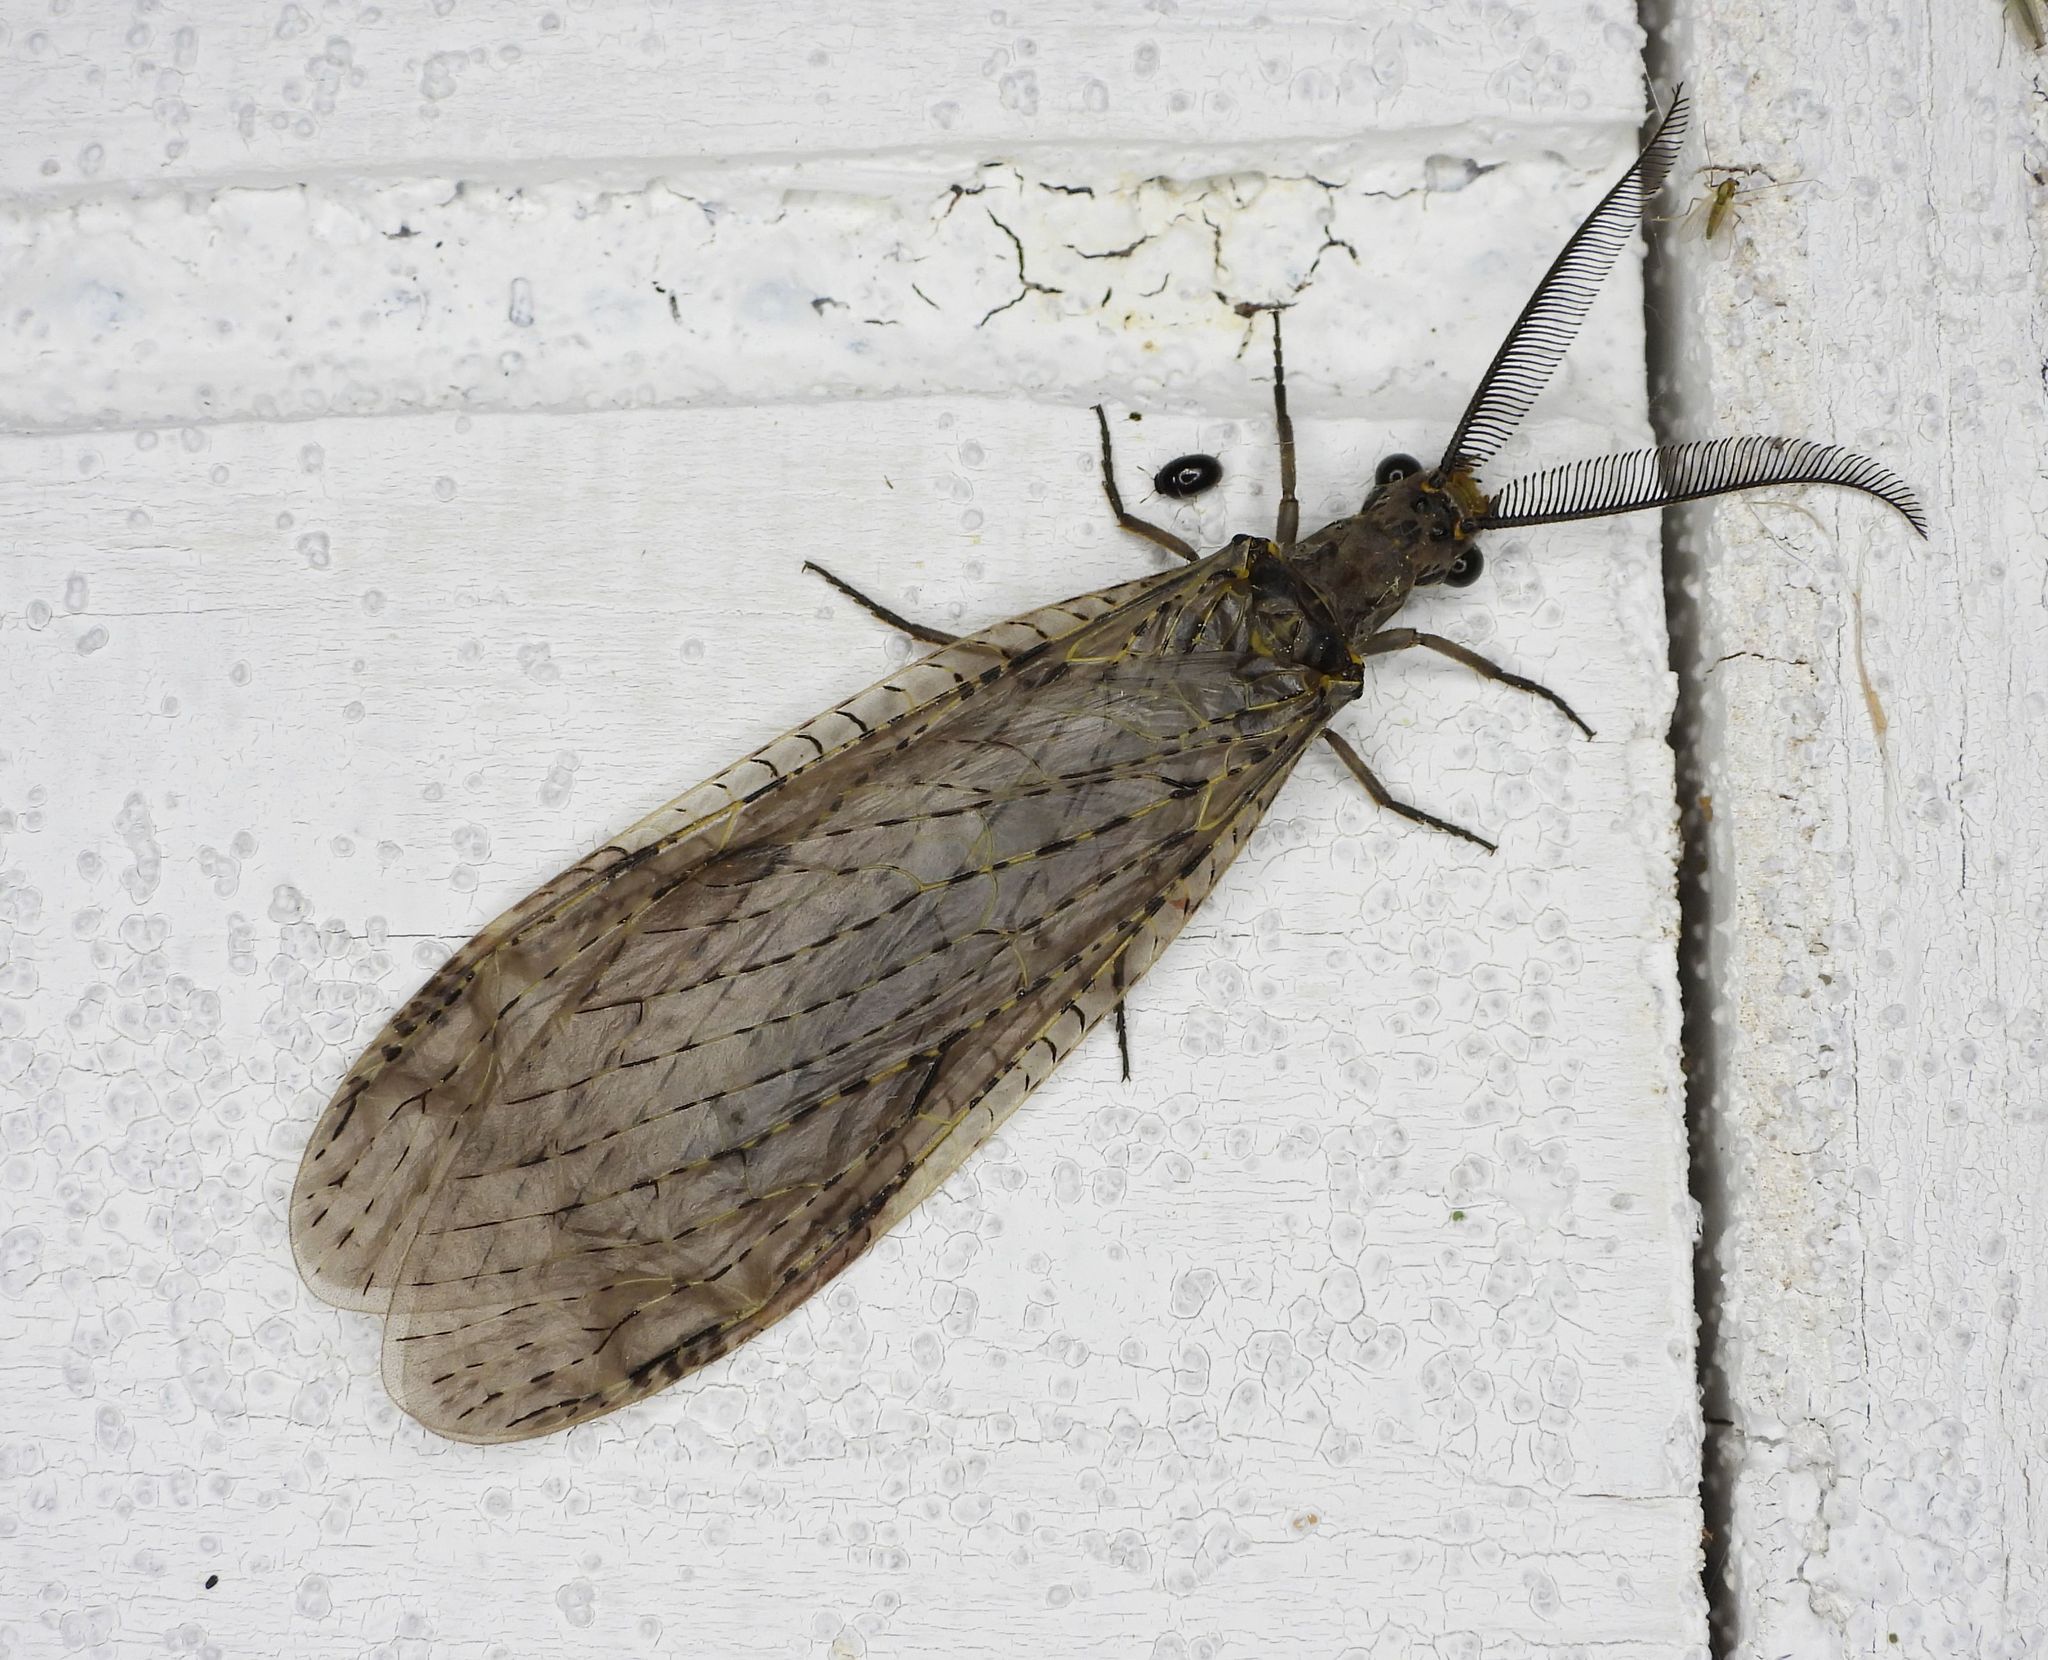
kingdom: Animalia
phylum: Arthropoda
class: Insecta
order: Megaloptera
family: Corydalidae
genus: Chauliodes
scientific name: Chauliodes rastricornis
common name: Spring fishfly
